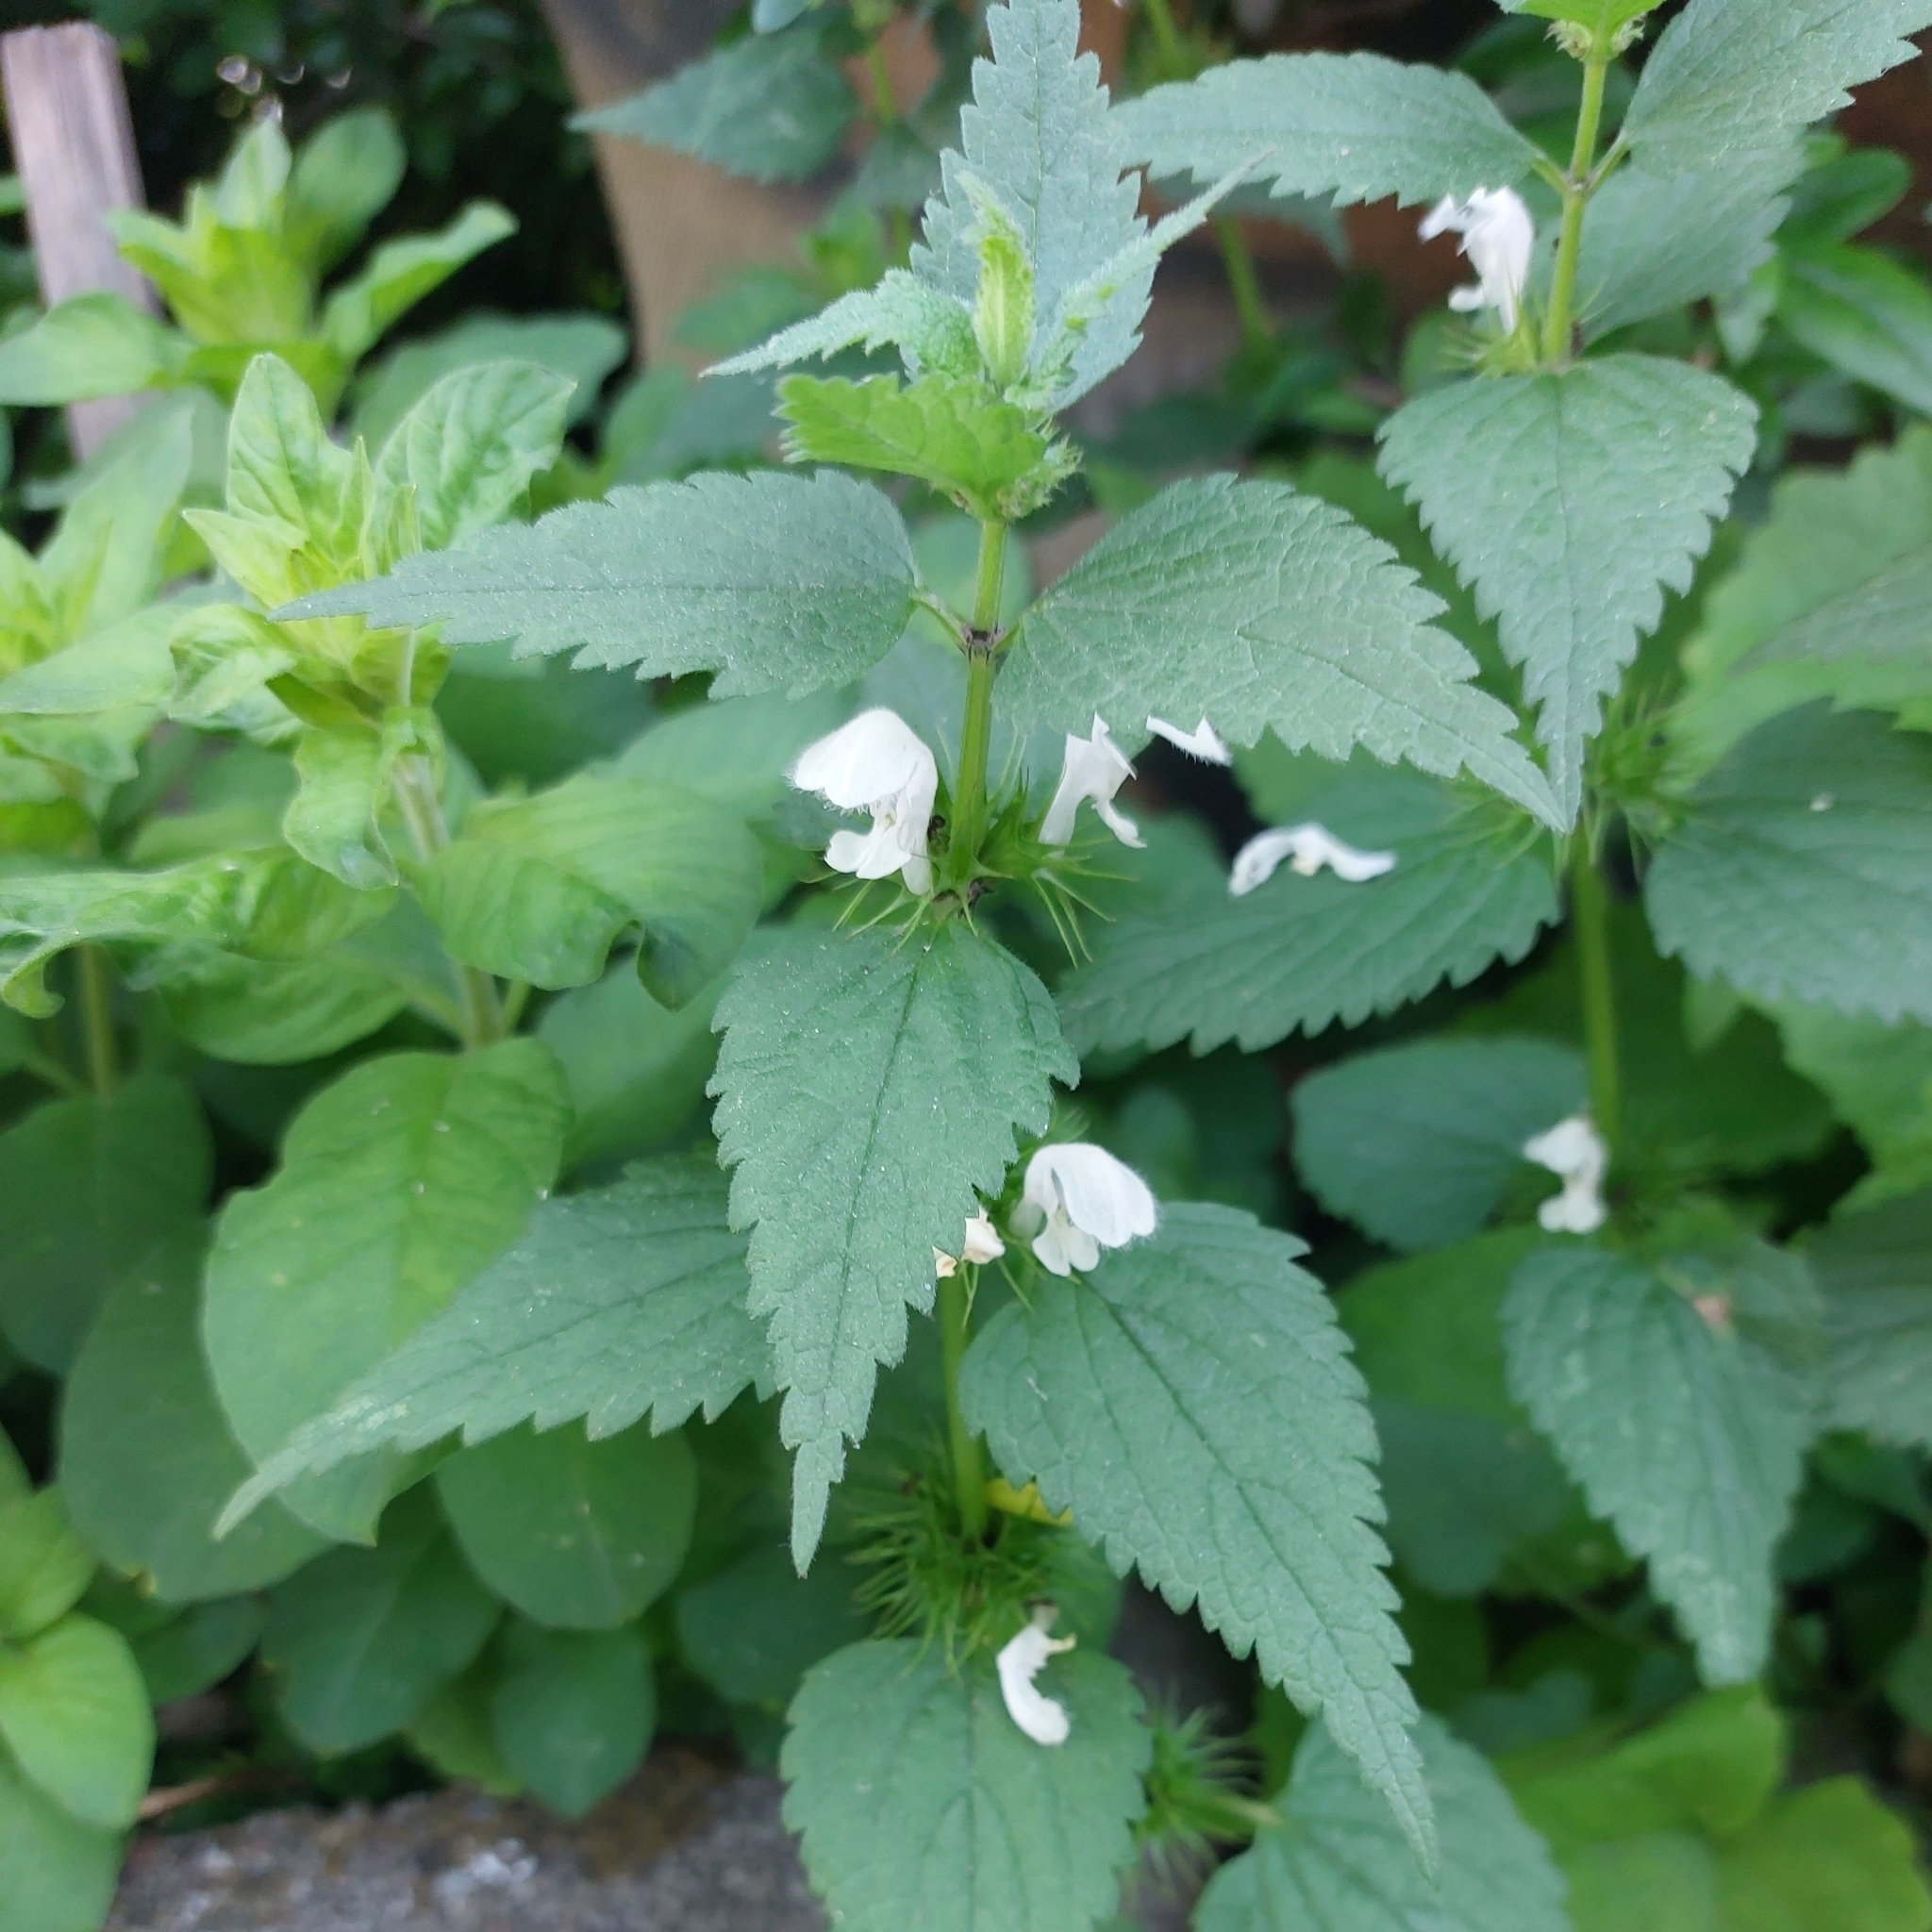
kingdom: Plantae
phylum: Tracheophyta
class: Magnoliopsida
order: Lamiales
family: Lamiaceae
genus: Lamium
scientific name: Lamium album
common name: White dead-nettle
